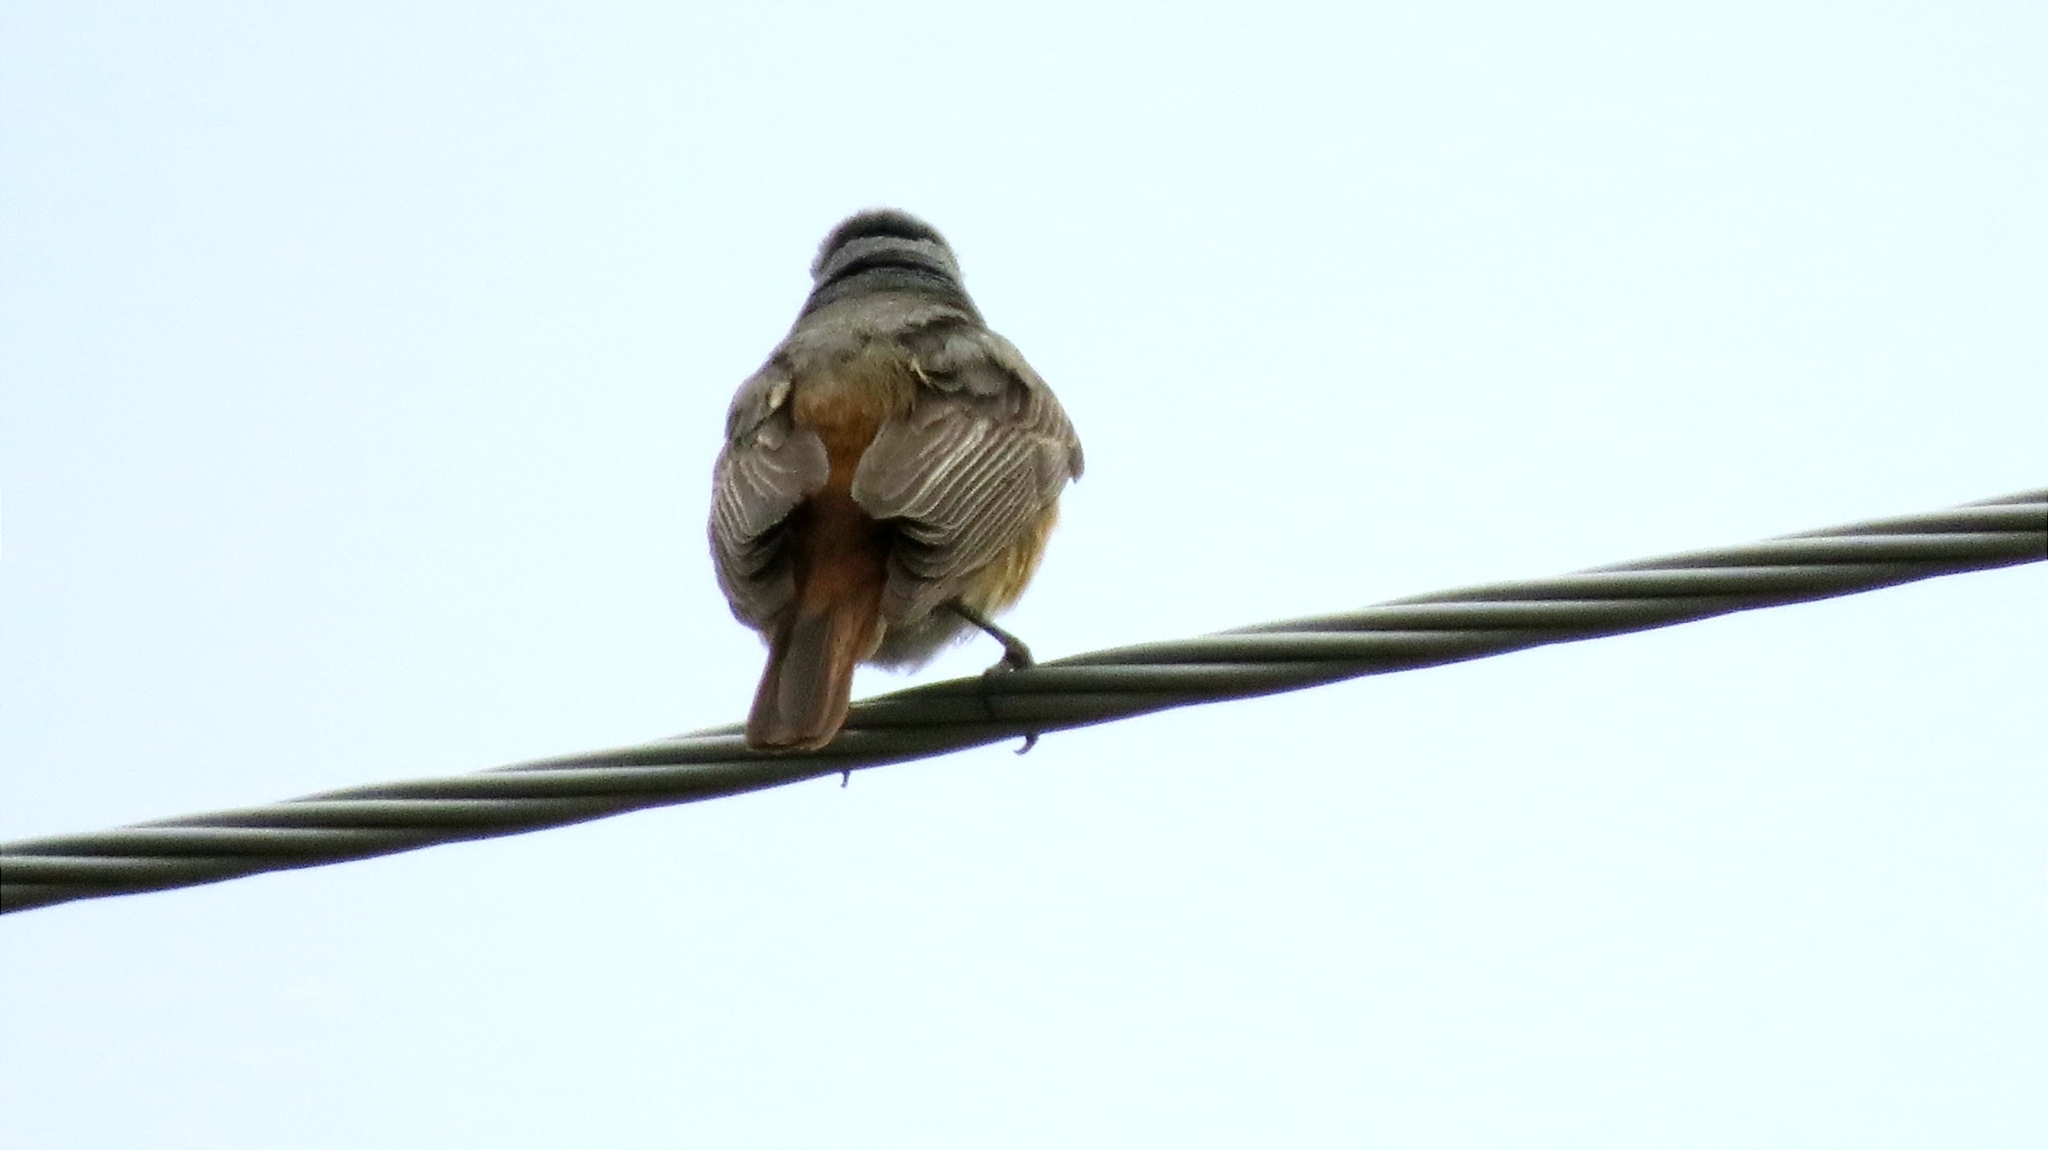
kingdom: Animalia
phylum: Chordata
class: Aves
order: Passeriformes
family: Muscicapidae
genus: Phoenicurus
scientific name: Phoenicurus phoenicurus
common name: Common redstart
